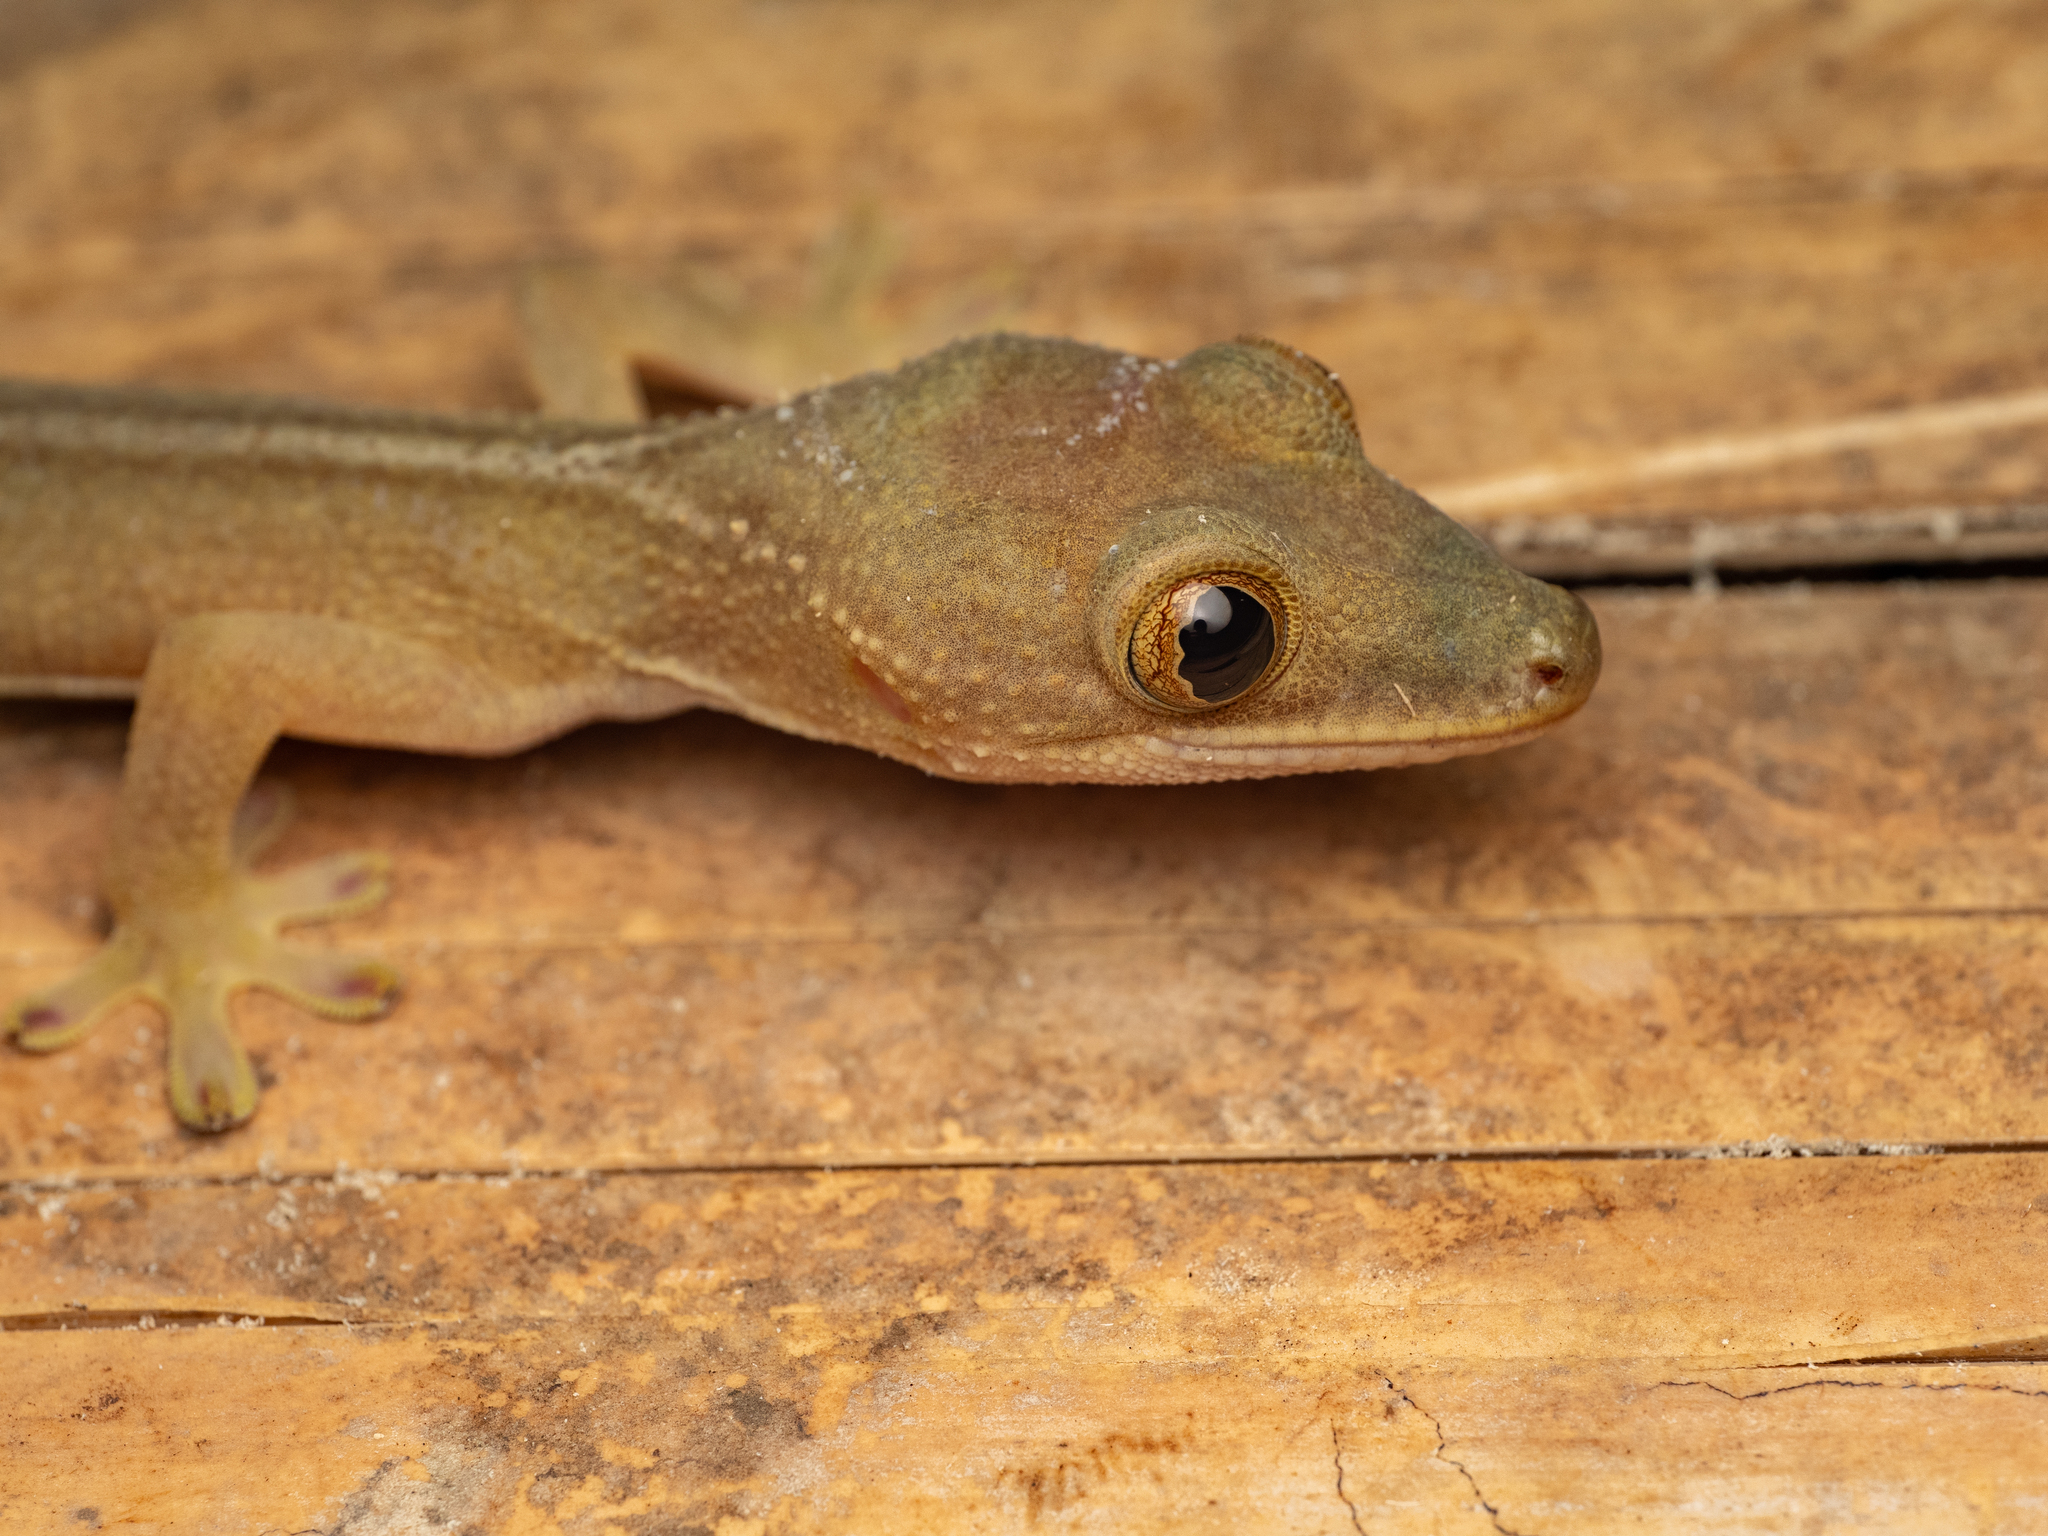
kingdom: Animalia
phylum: Chordata
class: Squamata
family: Gekkonidae
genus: Gekko
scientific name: Gekko vittatus
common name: Indo-pacific ghost gecko
